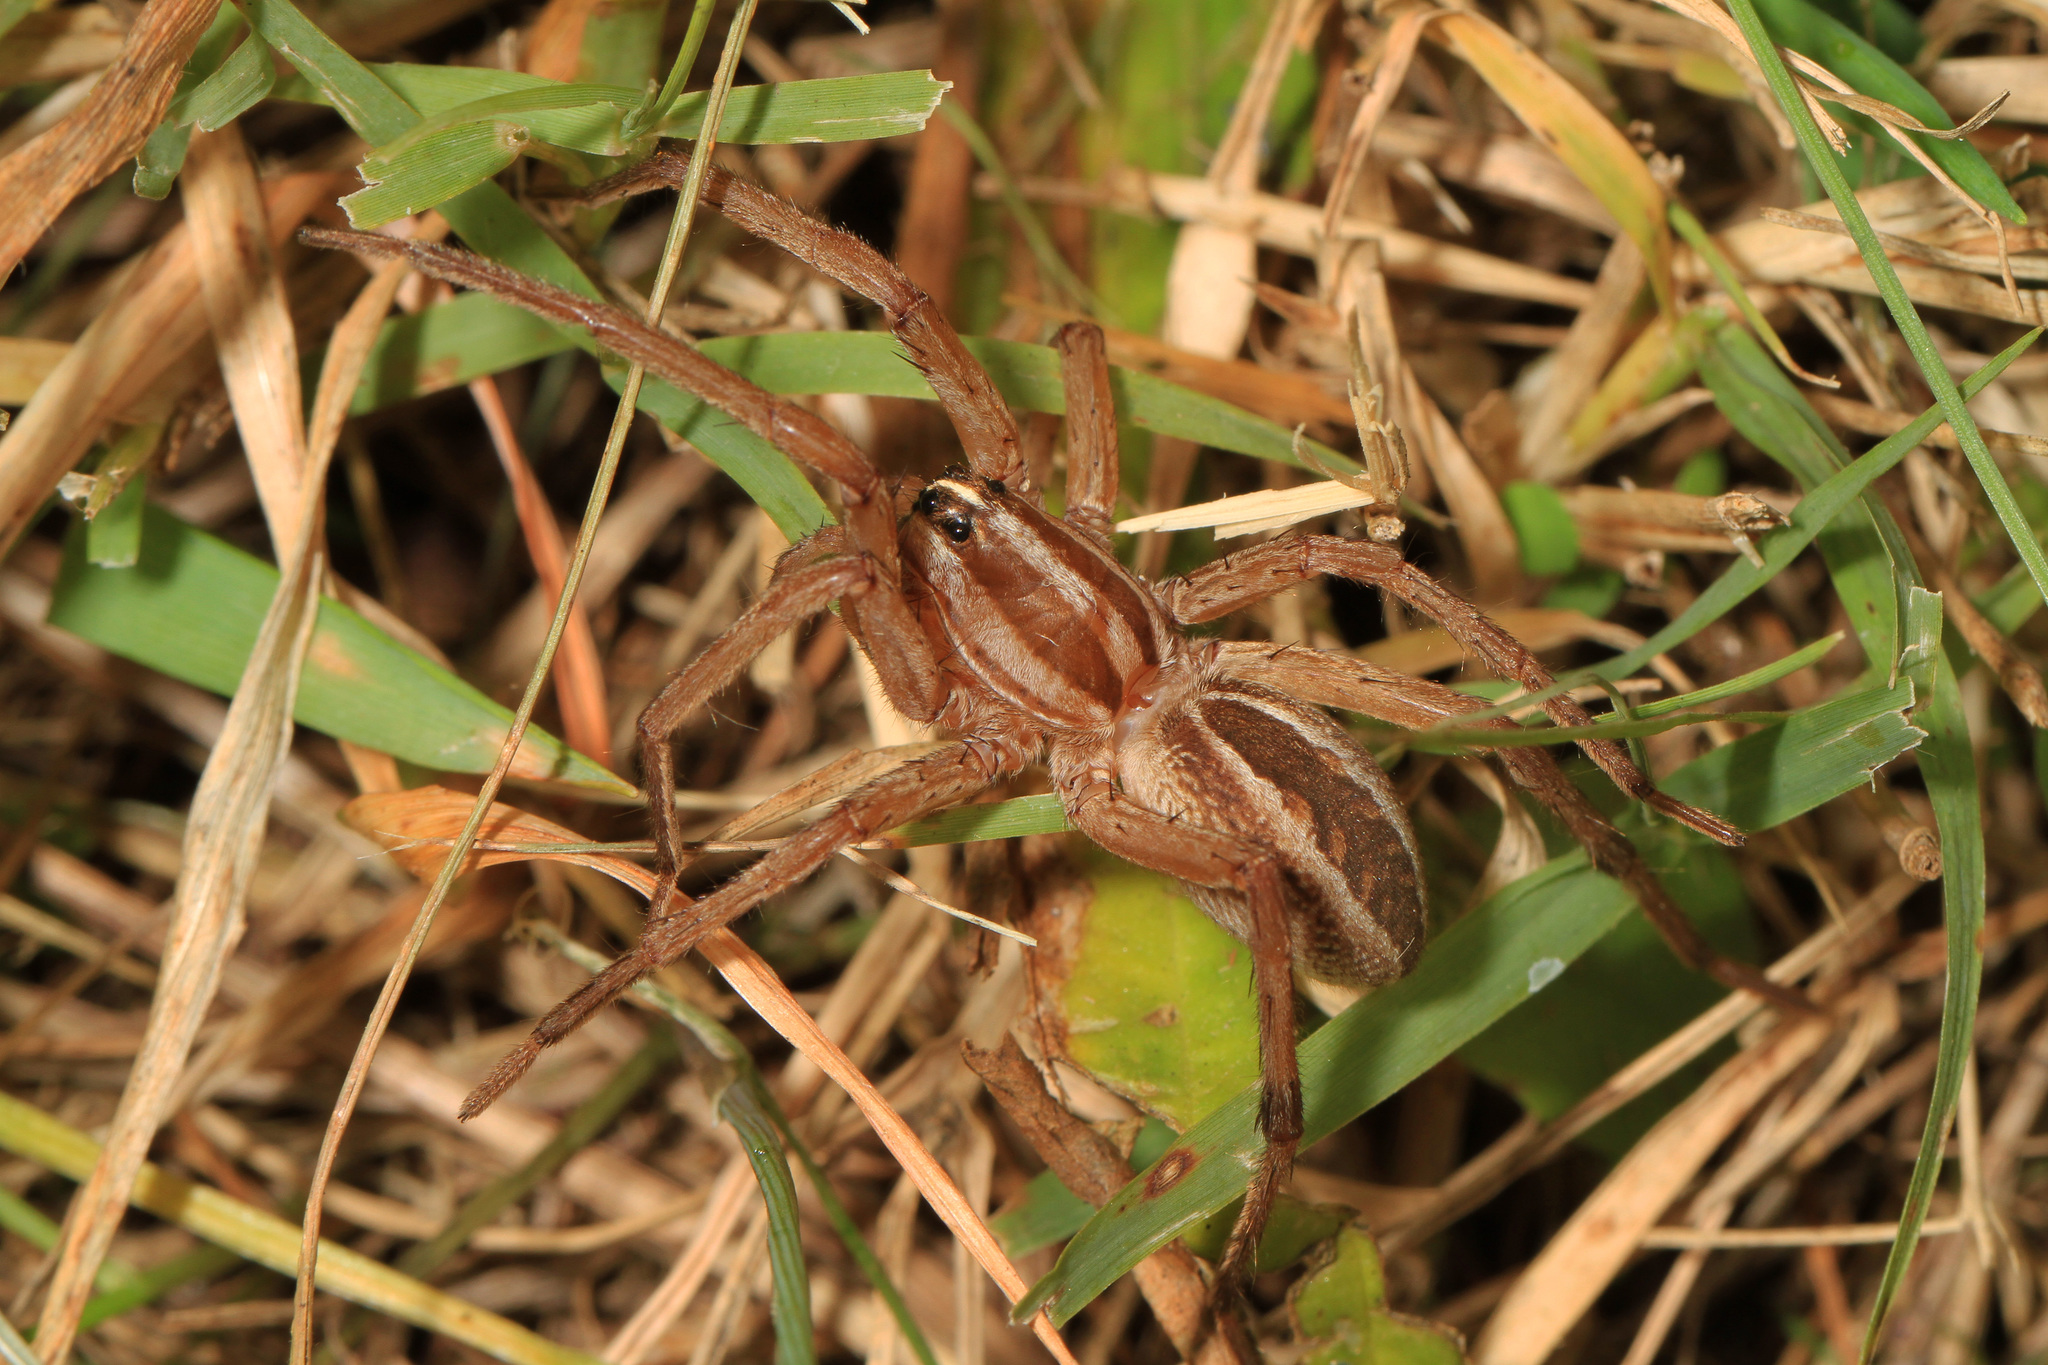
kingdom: Animalia
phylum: Arthropoda
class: Arachnida
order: Araneae
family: Lycosidae
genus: Rabidosa
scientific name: Rabidosa rabida
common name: Rabid wolf spider
